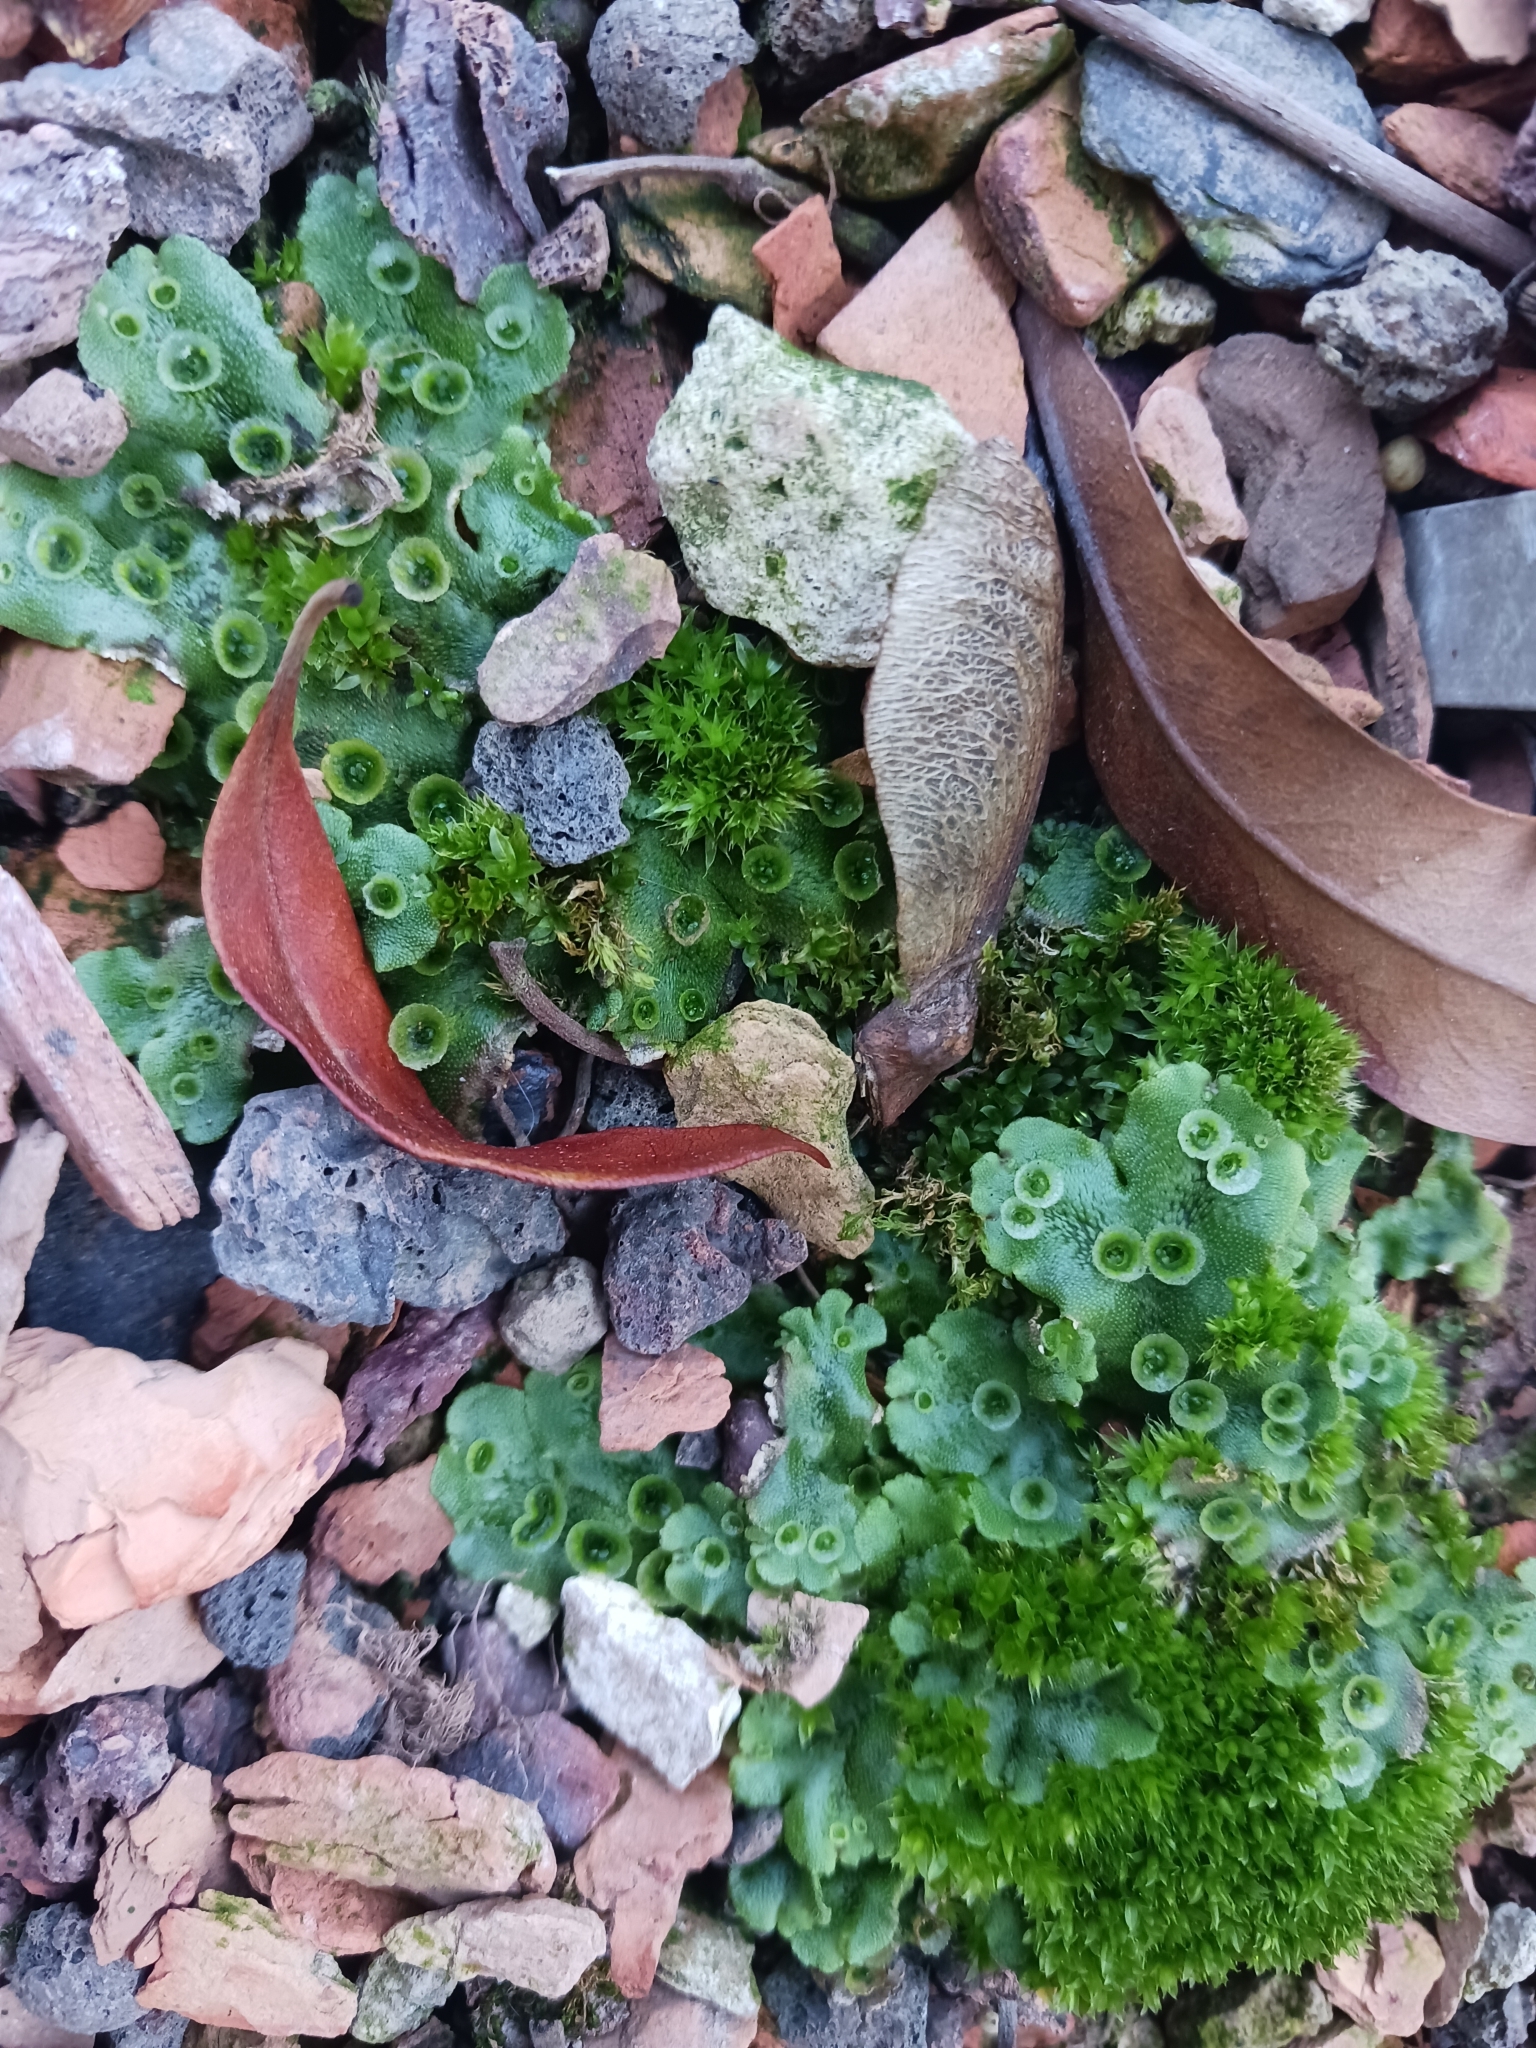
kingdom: Plantae
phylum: Marchantiophyta
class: Marchantiopsida
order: Marchantiales
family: Marchantiaceae
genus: Marchantia
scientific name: Marchantia polymorpha
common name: Common liverwort
